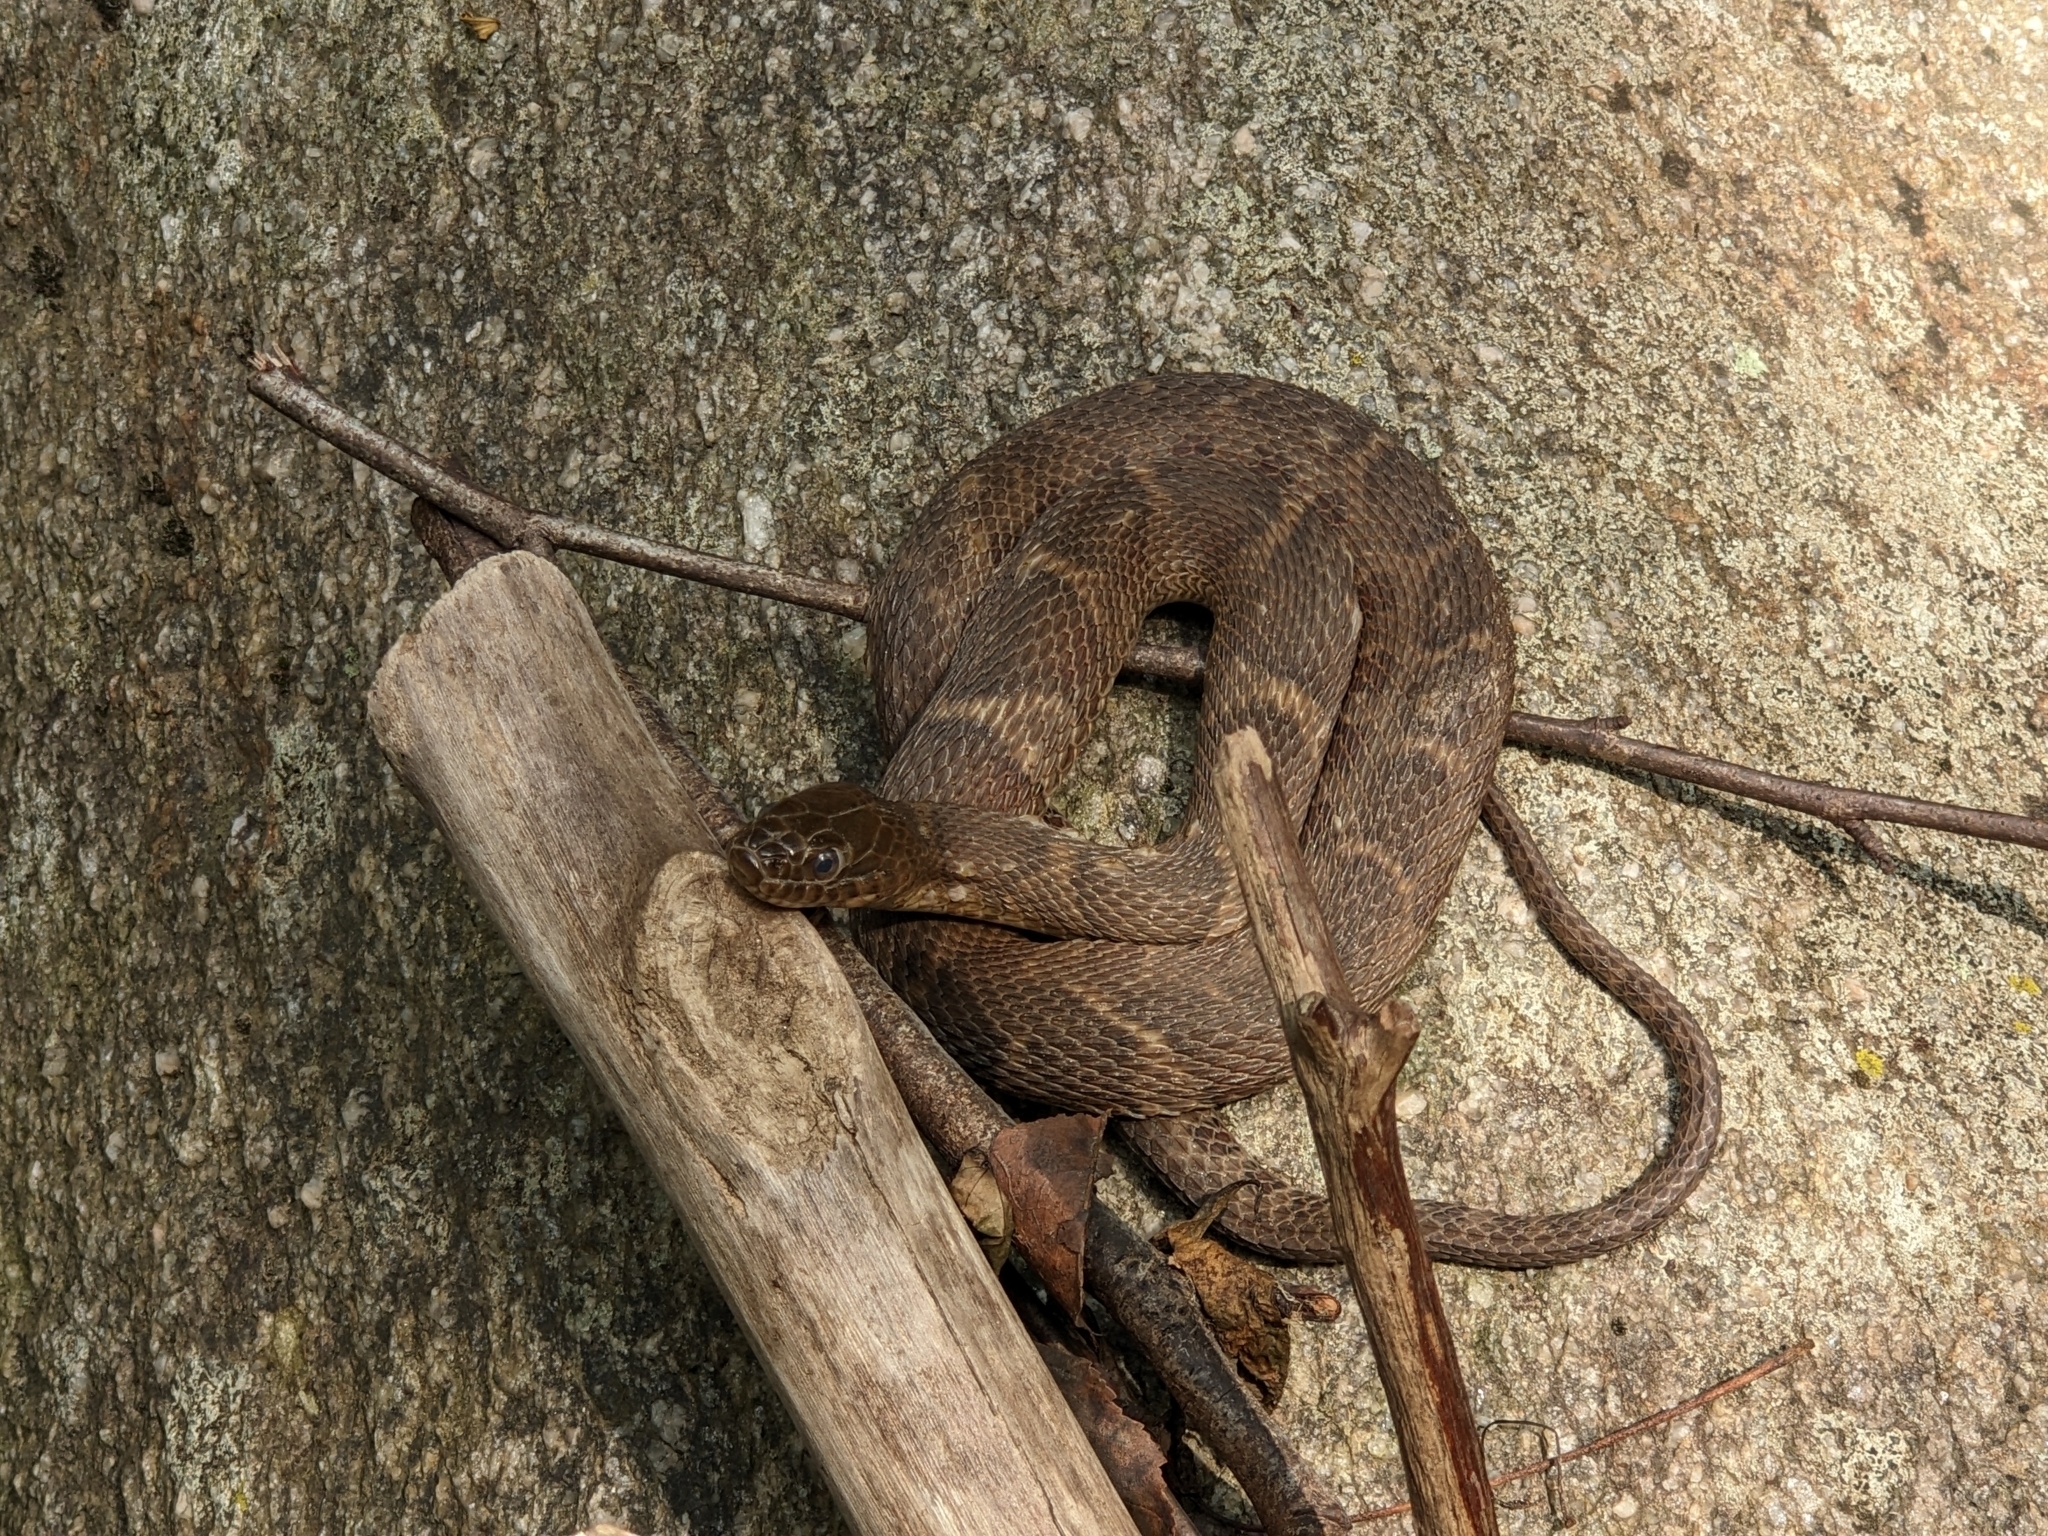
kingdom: Animalia
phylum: Chordata
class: Squamata
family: Colubridae
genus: Nerodia
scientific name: Nerodia sipedon
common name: Northern water snake
